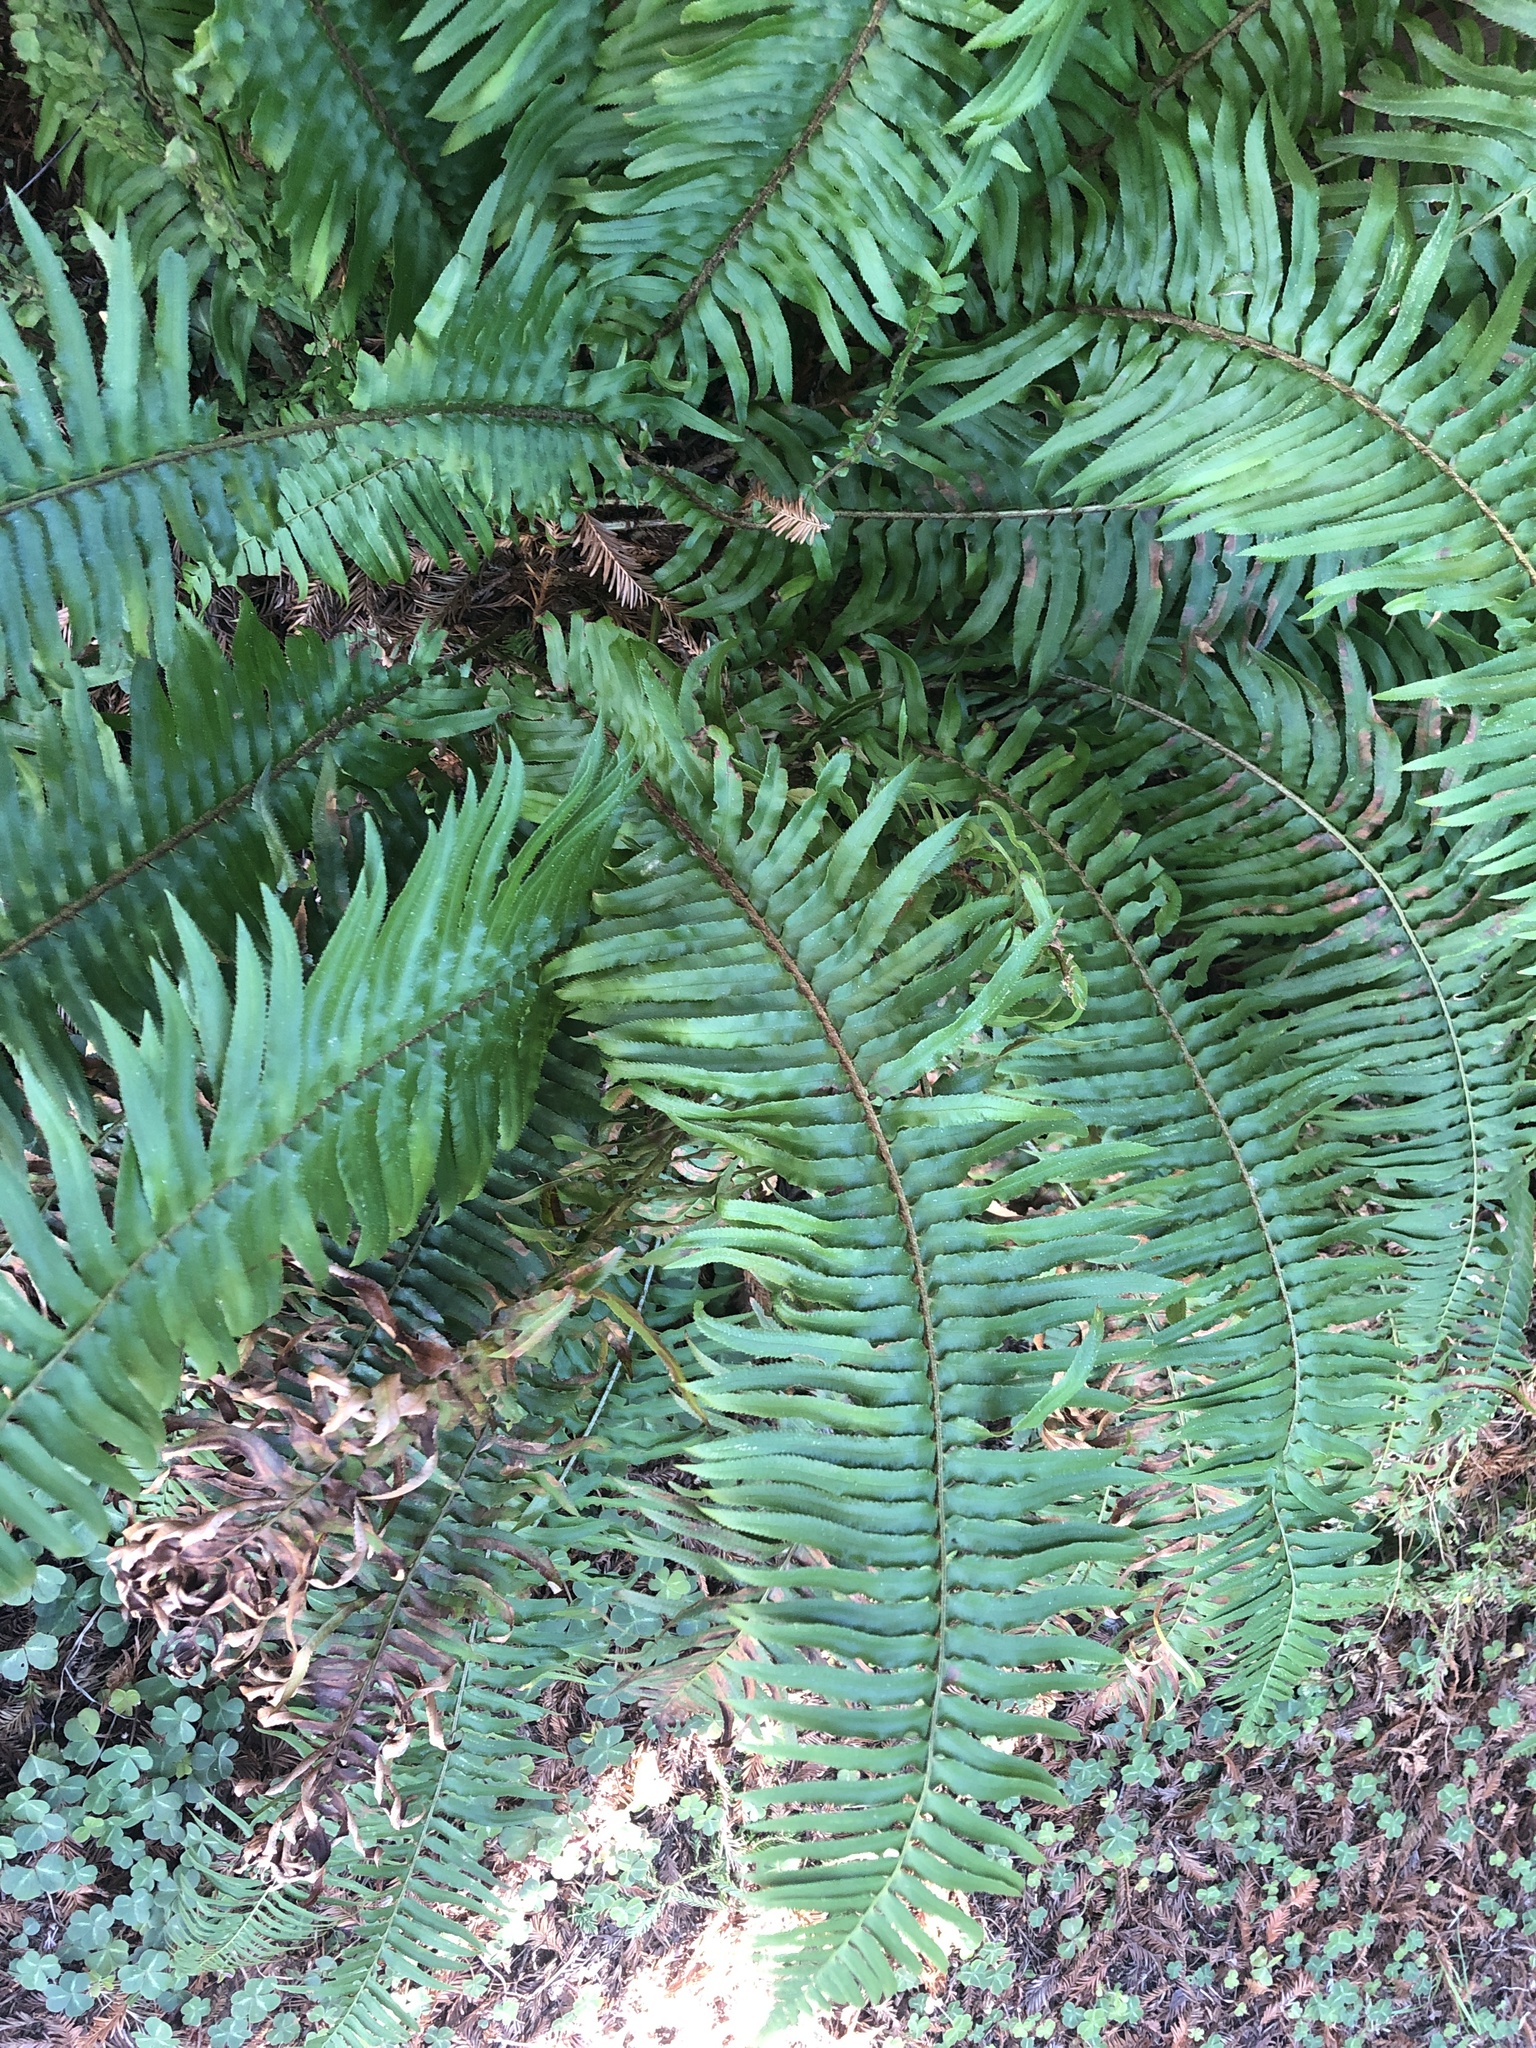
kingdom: Plantae
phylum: Tracheophyta
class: Polypodiopsida
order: Polypodiales
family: Dryopteridaceae
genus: Polystichum
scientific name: Polystichum munitum
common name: Western sword-fern
